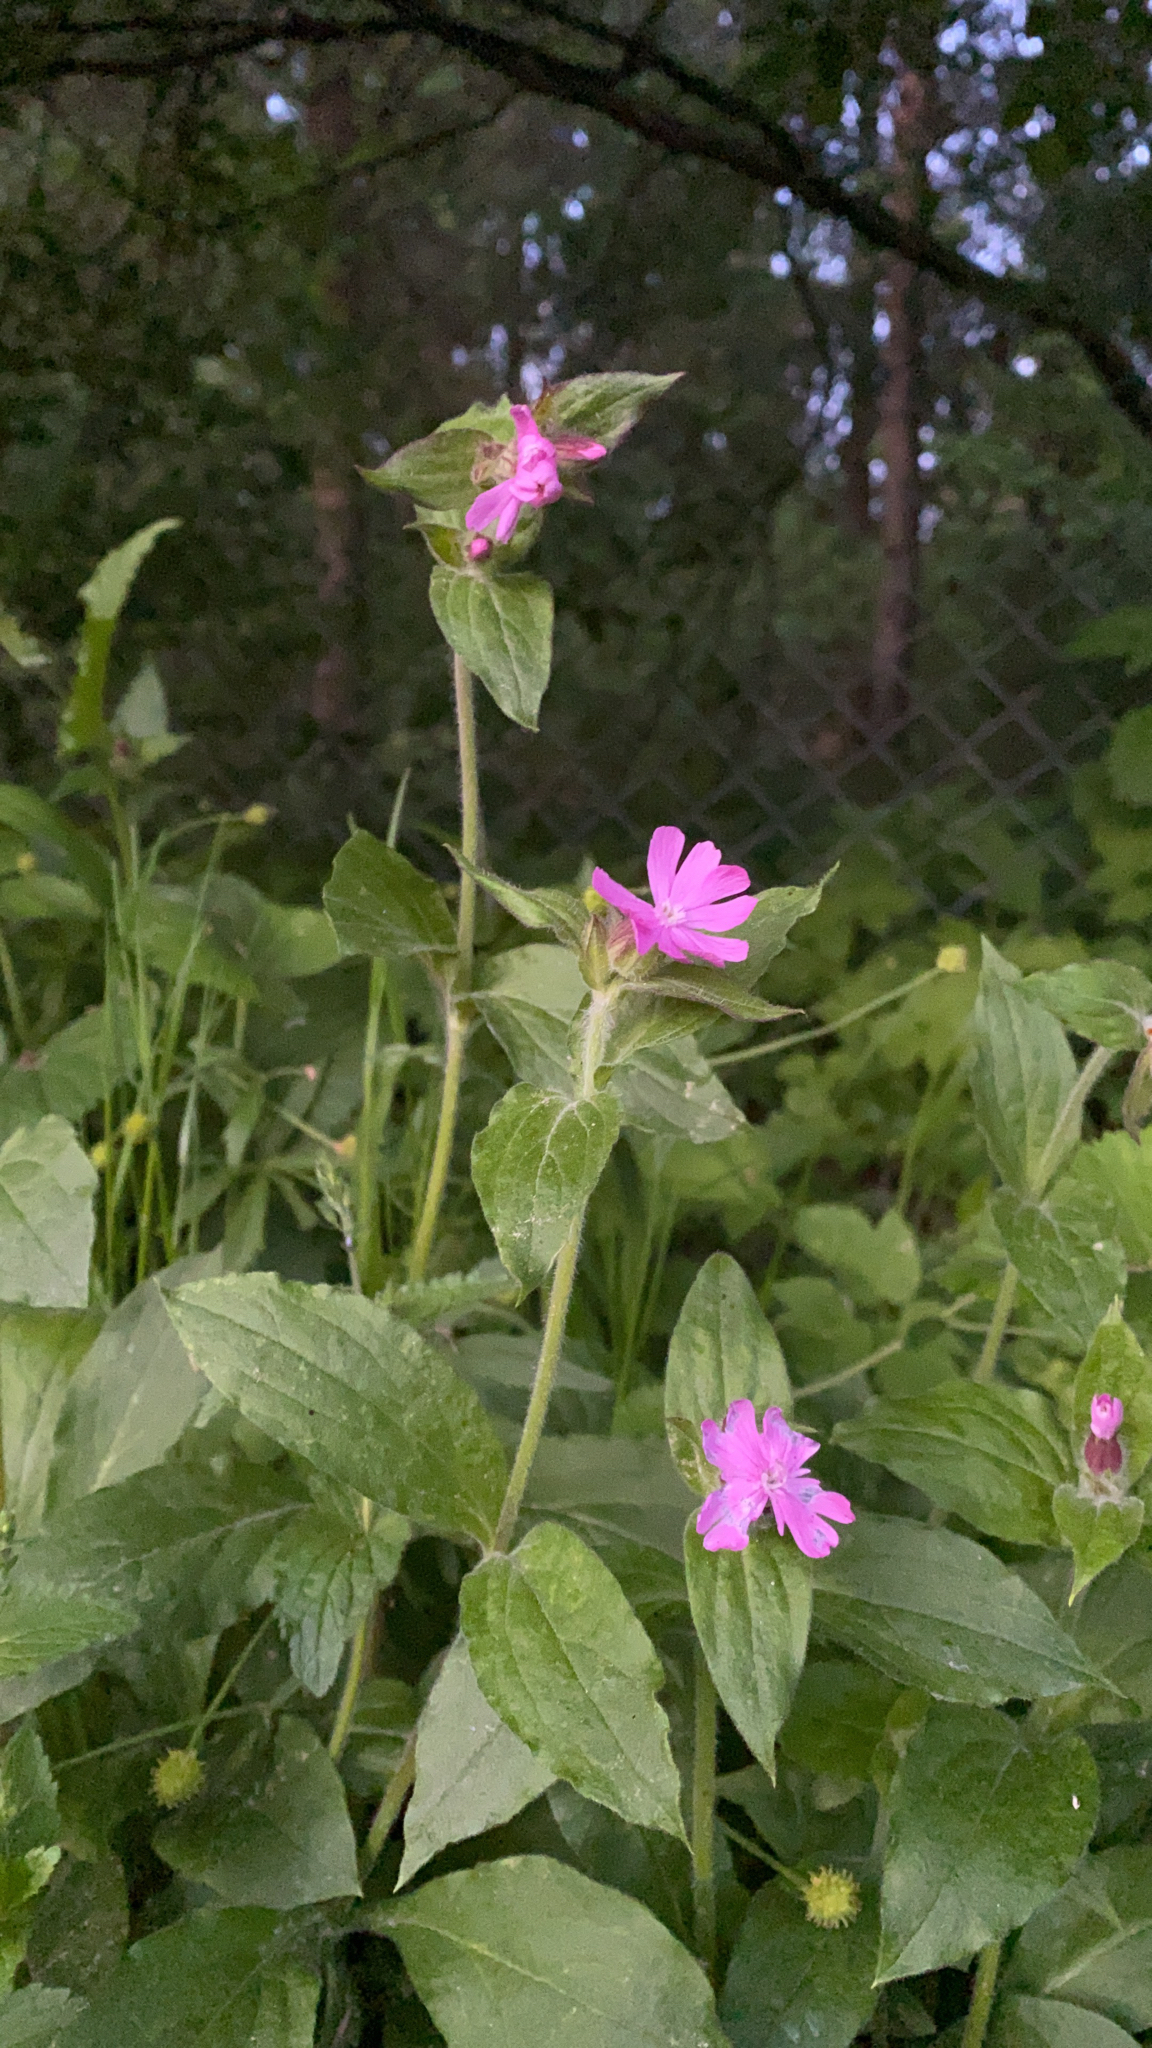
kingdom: Plantae
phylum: Tracheophyta
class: Magnoliopsida
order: Caryophyllales
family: Caryophyllaceae
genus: Silene
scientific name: Silene dioica
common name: Red campion
